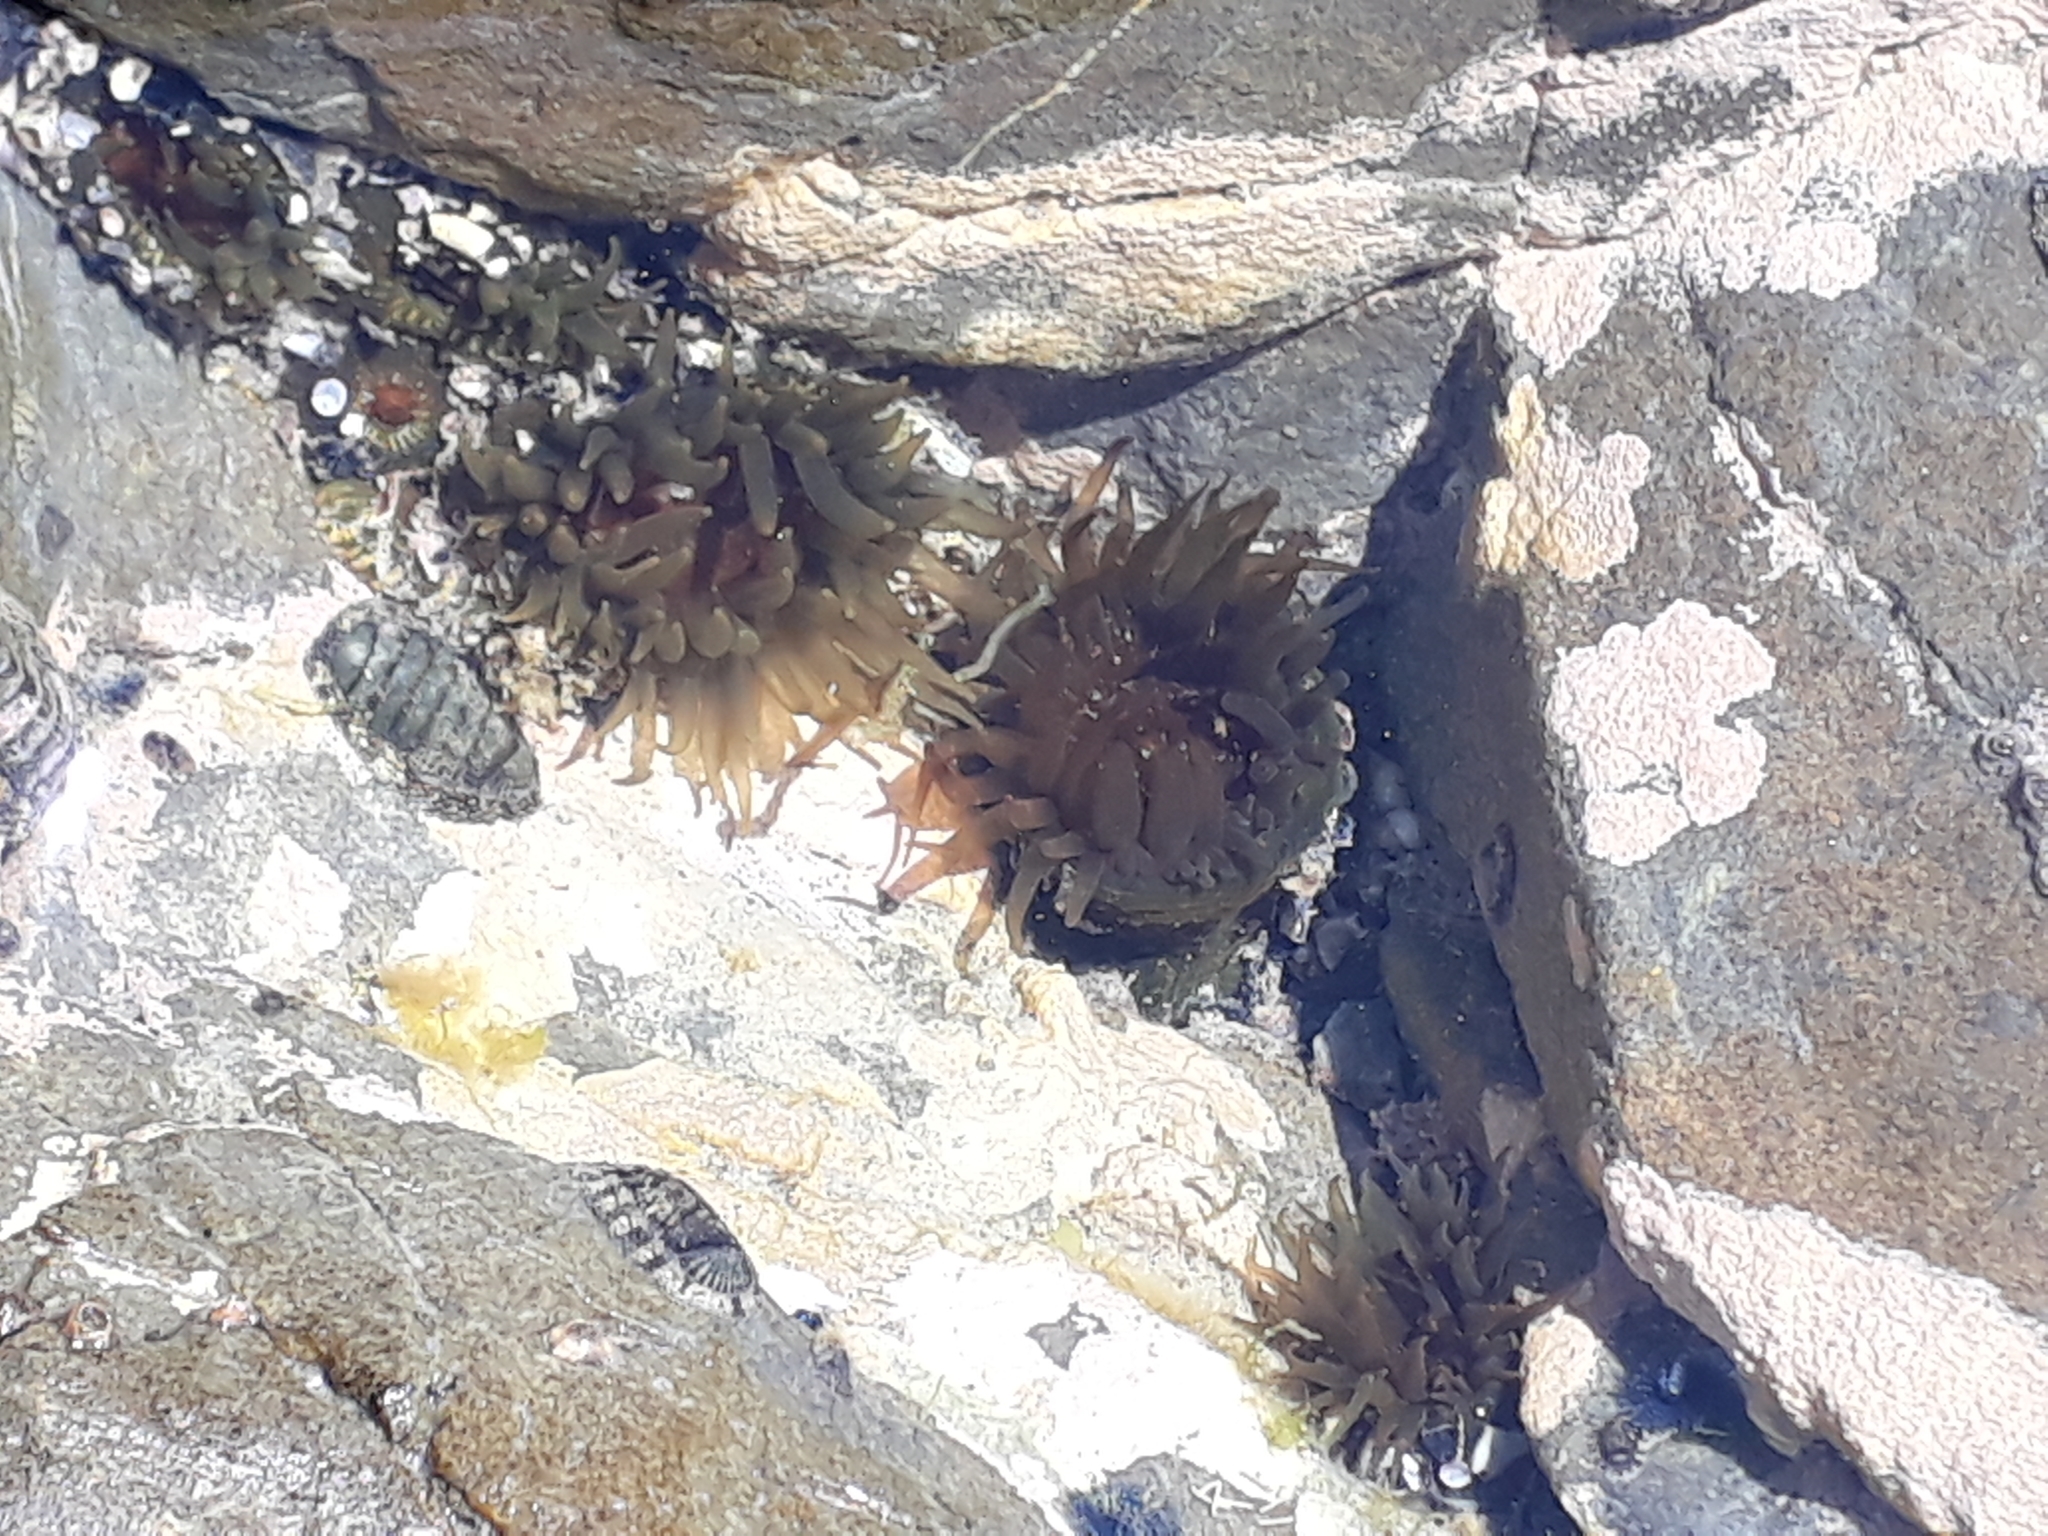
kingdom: Animalia
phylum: Cnidaria
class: Anthozoa
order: Actiniaria
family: Actiniidae
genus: Isactinia
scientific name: Isactinia olivacea
